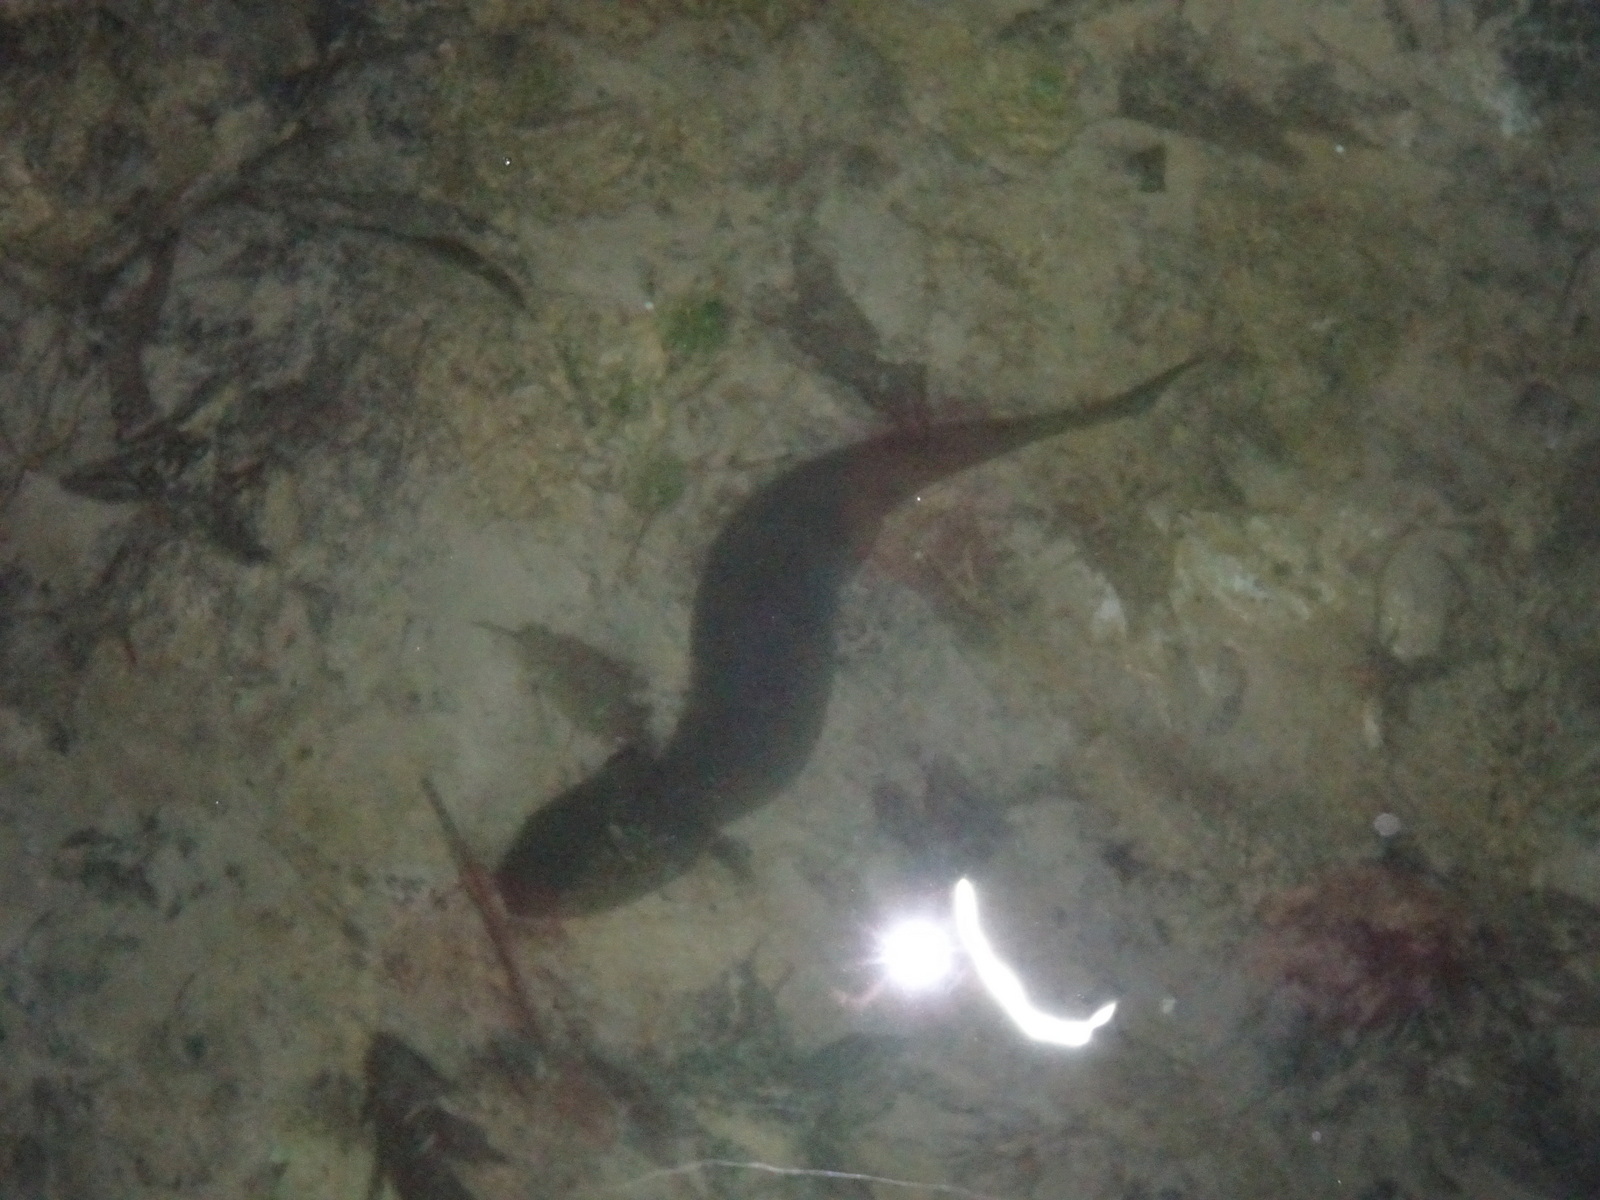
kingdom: Animalia
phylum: Chordata
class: Amphibia
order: Caudata
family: Proteidae
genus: Necturus
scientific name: Necturus maculosus
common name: Mudpuppy
